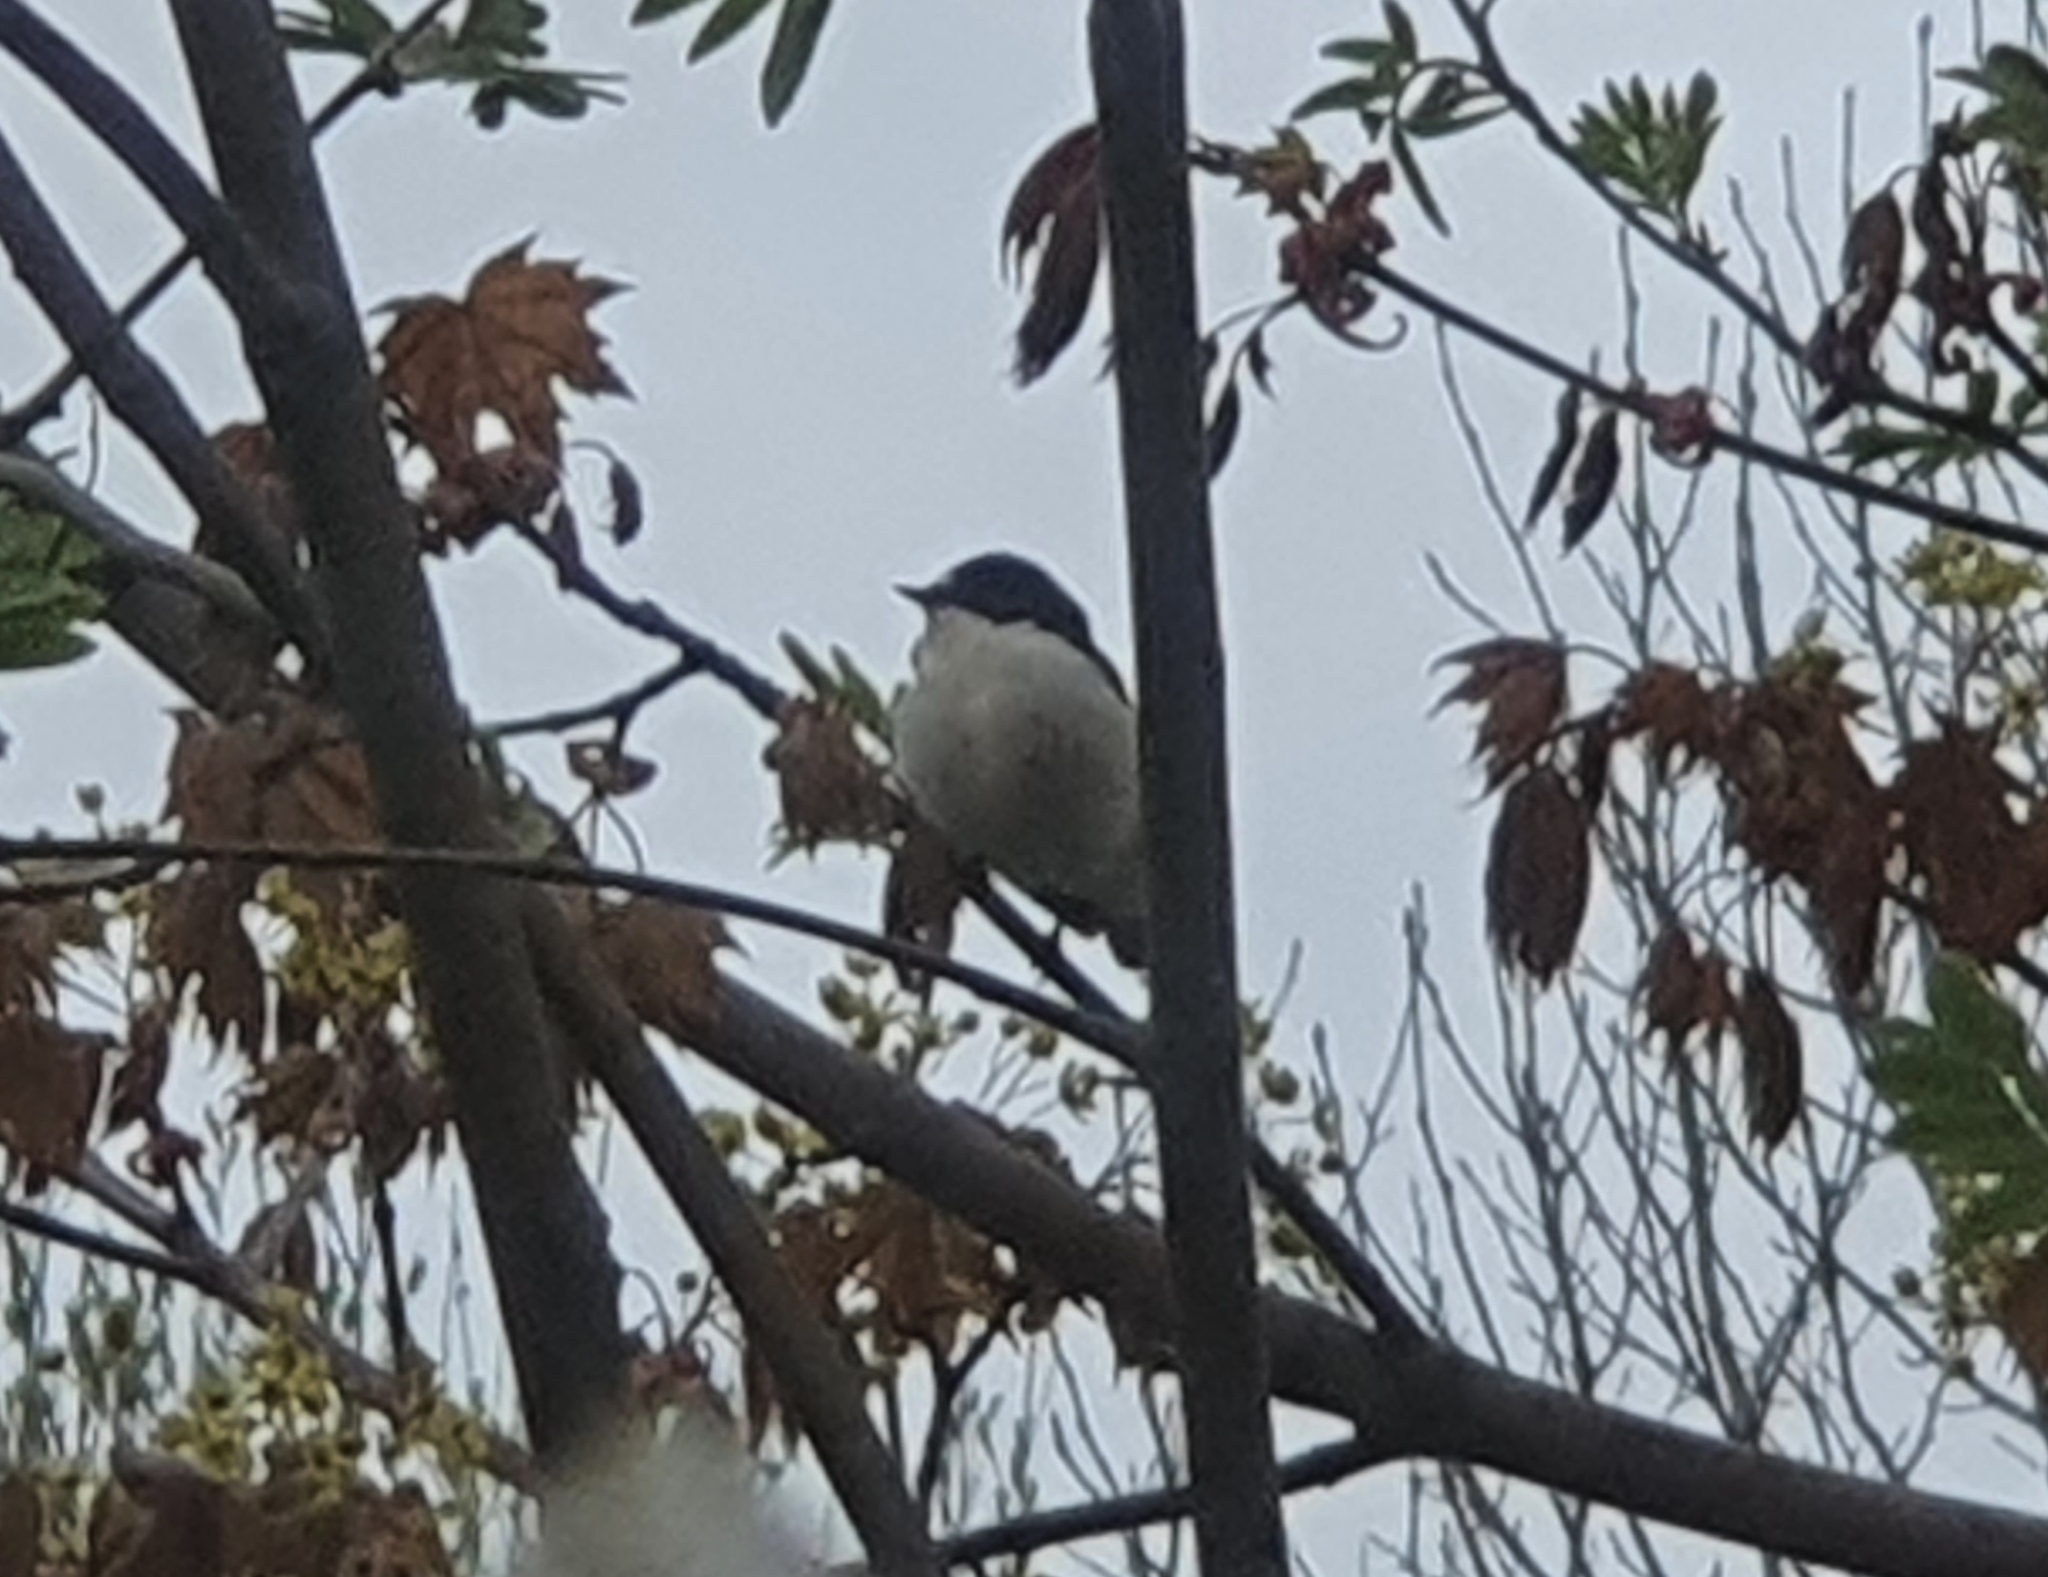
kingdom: Animalia
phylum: Chordata
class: Aves
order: Passeriformes
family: Muscicapidae
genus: Ficedula
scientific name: Ficedula hypoleuca
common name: European pied flycatcher
